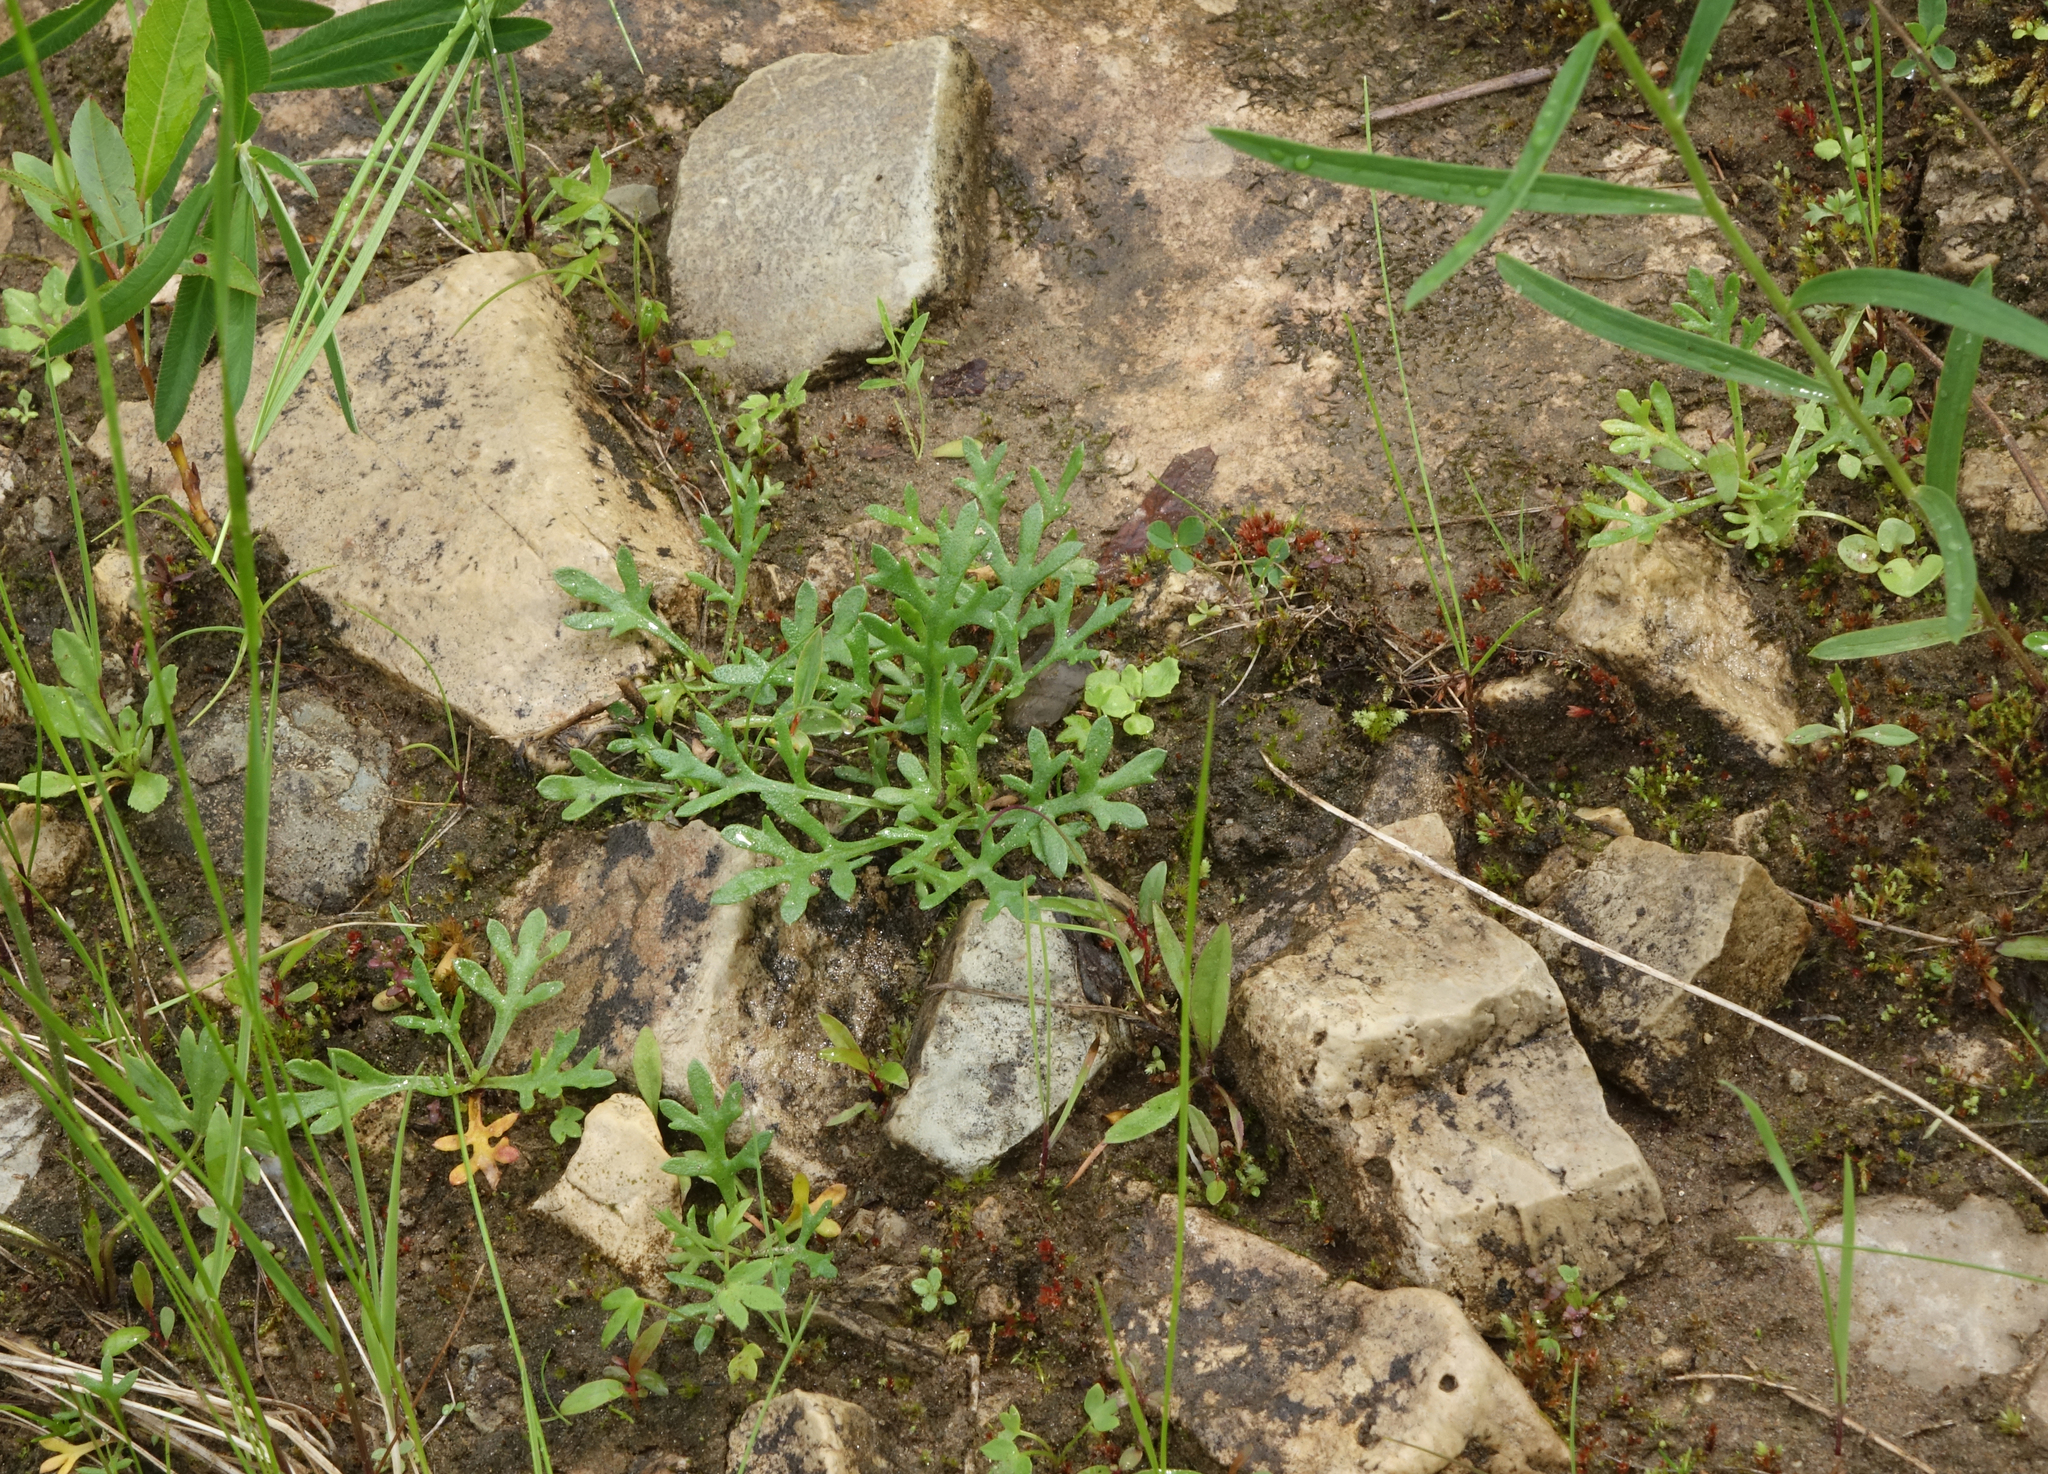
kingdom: Plantae
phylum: Tracheophyta
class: Magnoliopsida
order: Asterales
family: Asteraceae
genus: Chrysanthemum
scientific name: Chrysanthemum zawadzkii
